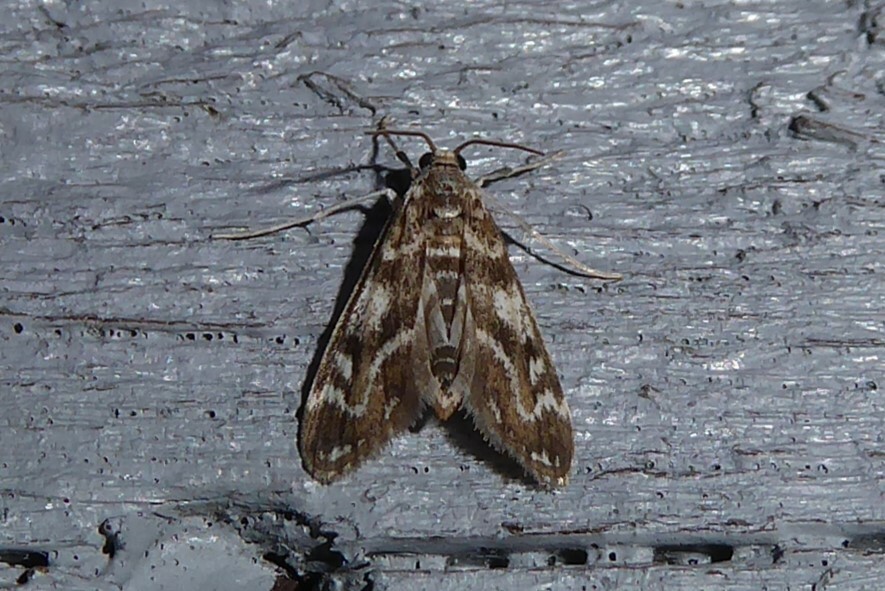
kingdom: Animalia
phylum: Arthropoda
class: Insecta
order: Lepidoptera
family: Crambidae
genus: Hygraula
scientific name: Hygraula nitens
